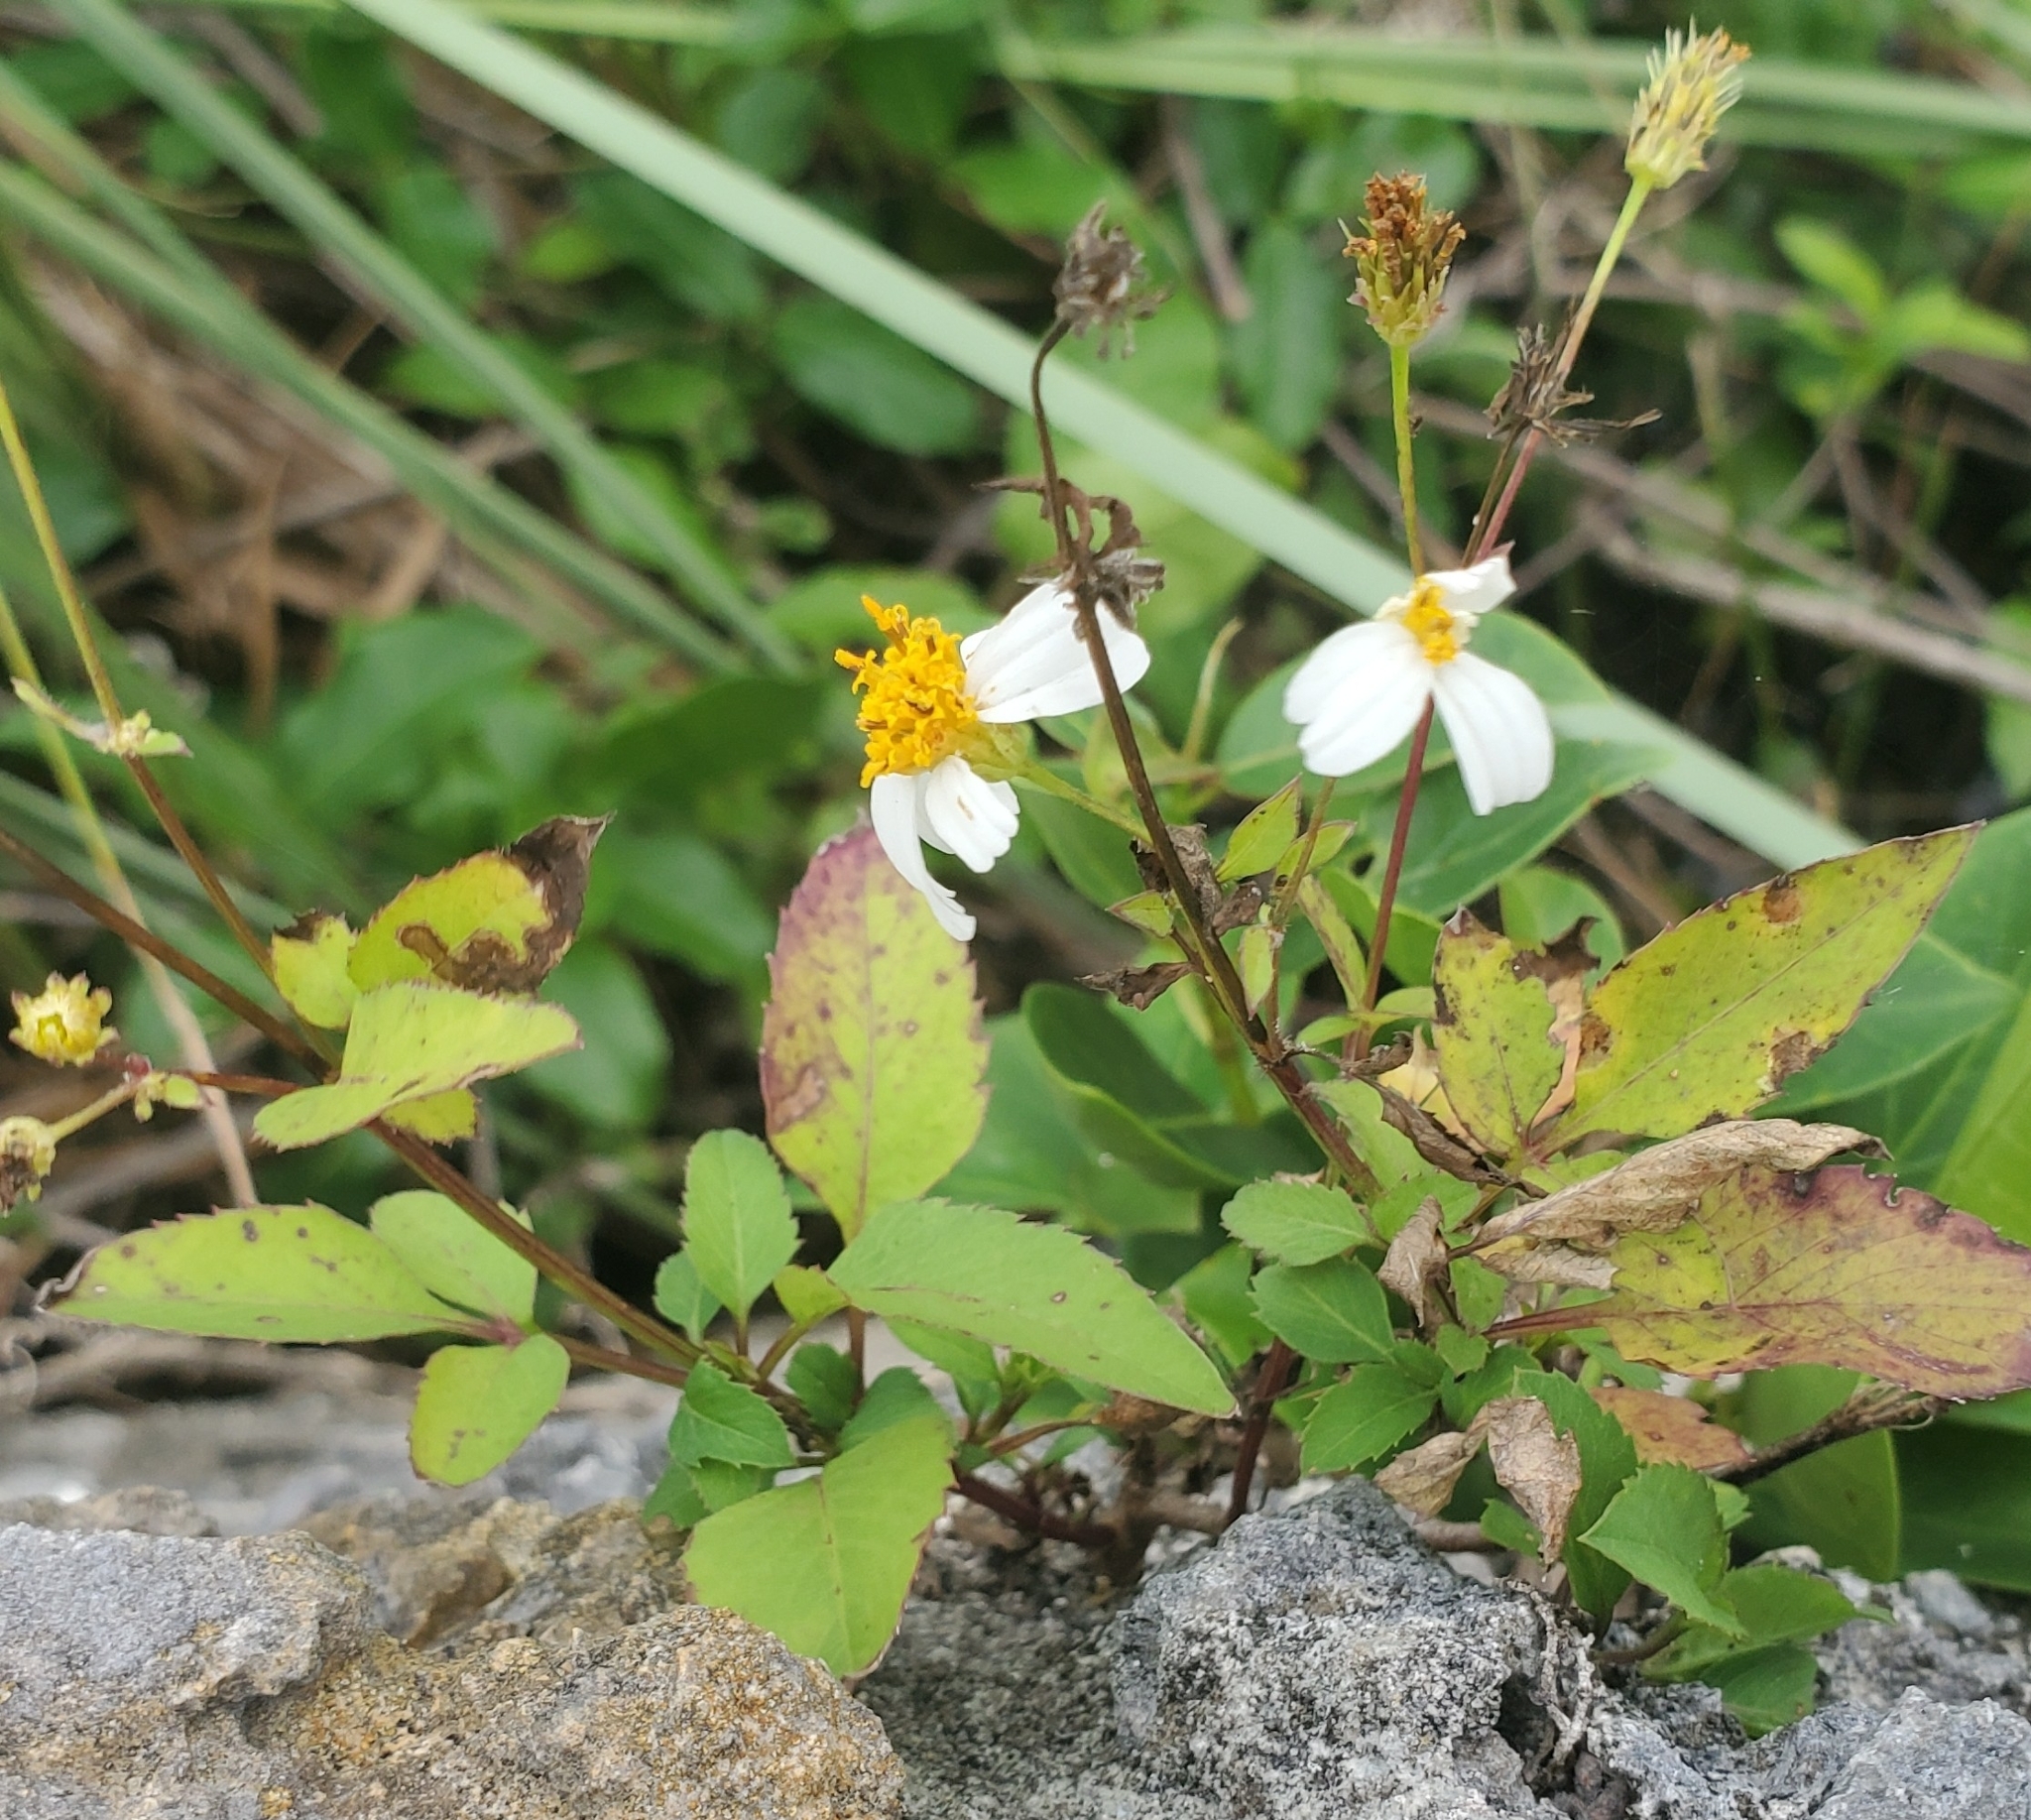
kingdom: Plantae
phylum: Tracheophyta
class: Magnoliopsida
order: Asterales
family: Asteraceae
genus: Bidens
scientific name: Bidens alba
